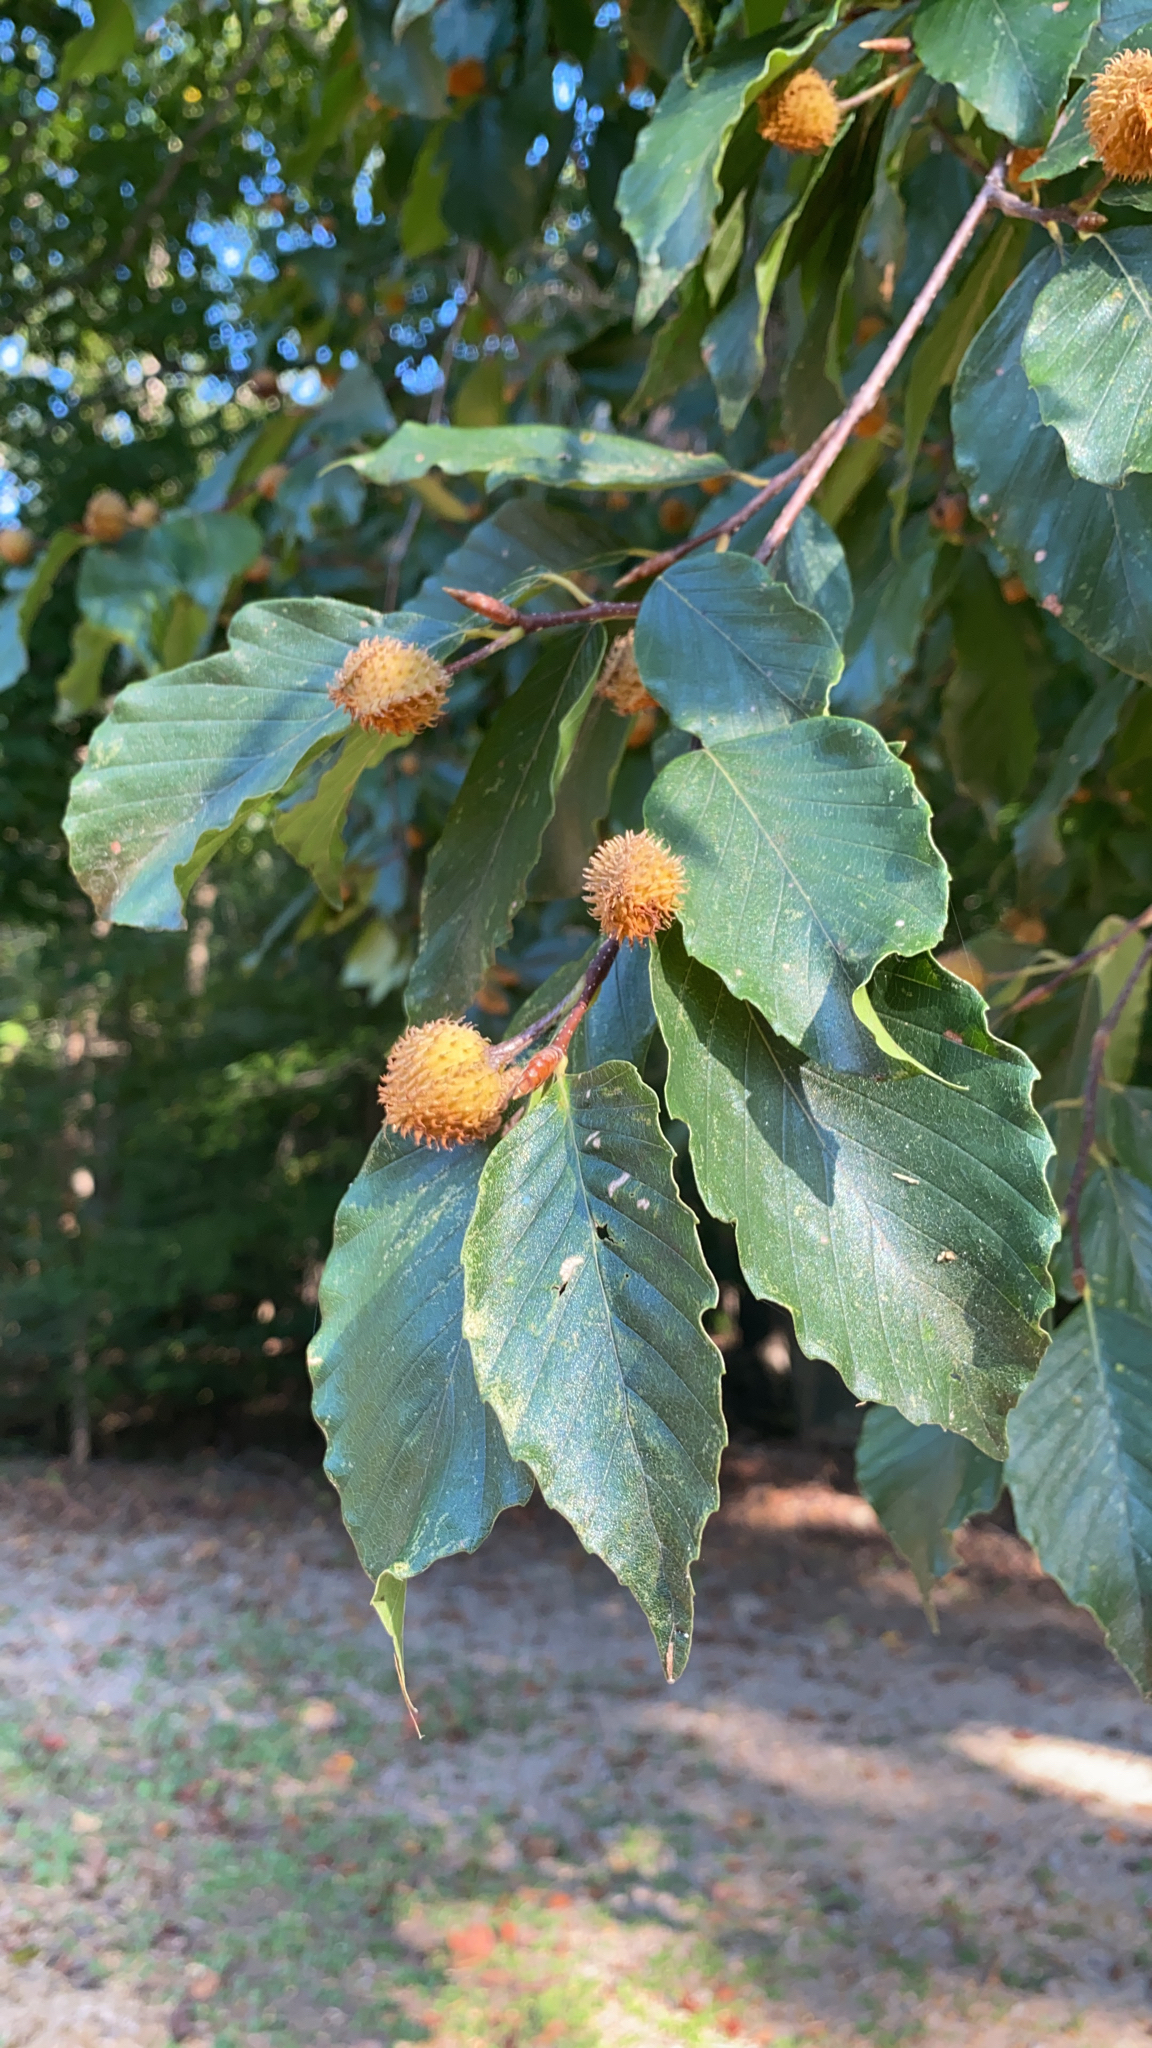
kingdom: Plantae
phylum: Tracheophyta
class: Magnoliopsida
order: Fagales
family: Fagaceae
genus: Fagus
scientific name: Fagus sylvatica
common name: Beech
